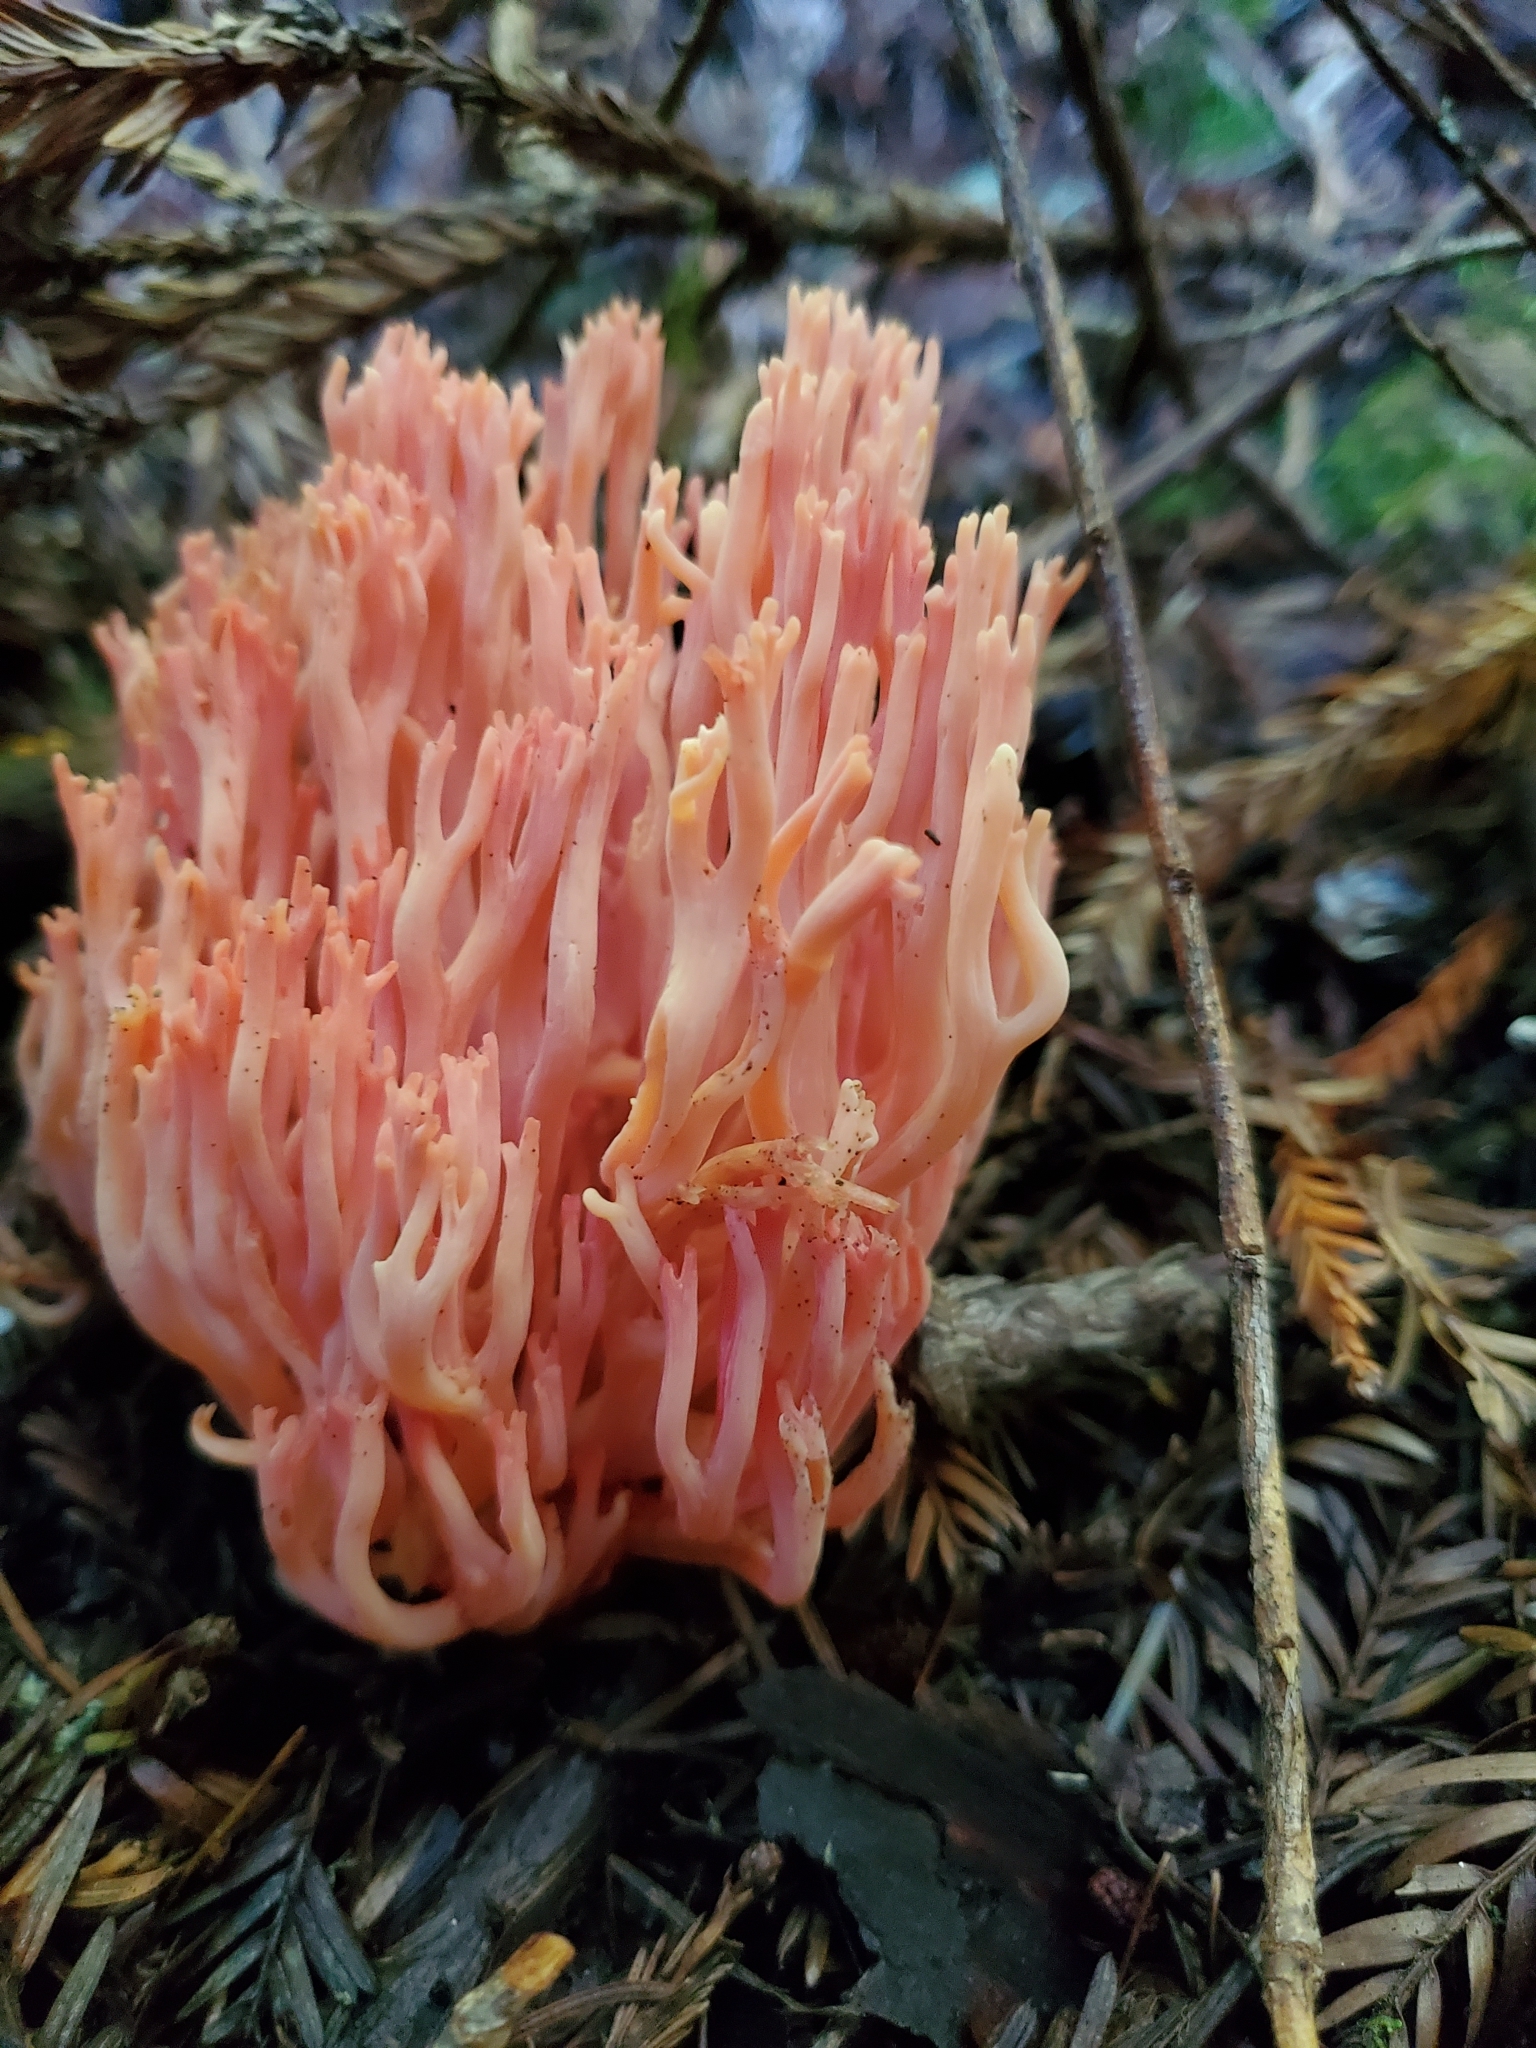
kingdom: Fungi
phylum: Basidiomycota
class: Agaricomycetes
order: Gomphales
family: Gomphaceae
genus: Ramaria
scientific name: Ramaria araiospora
